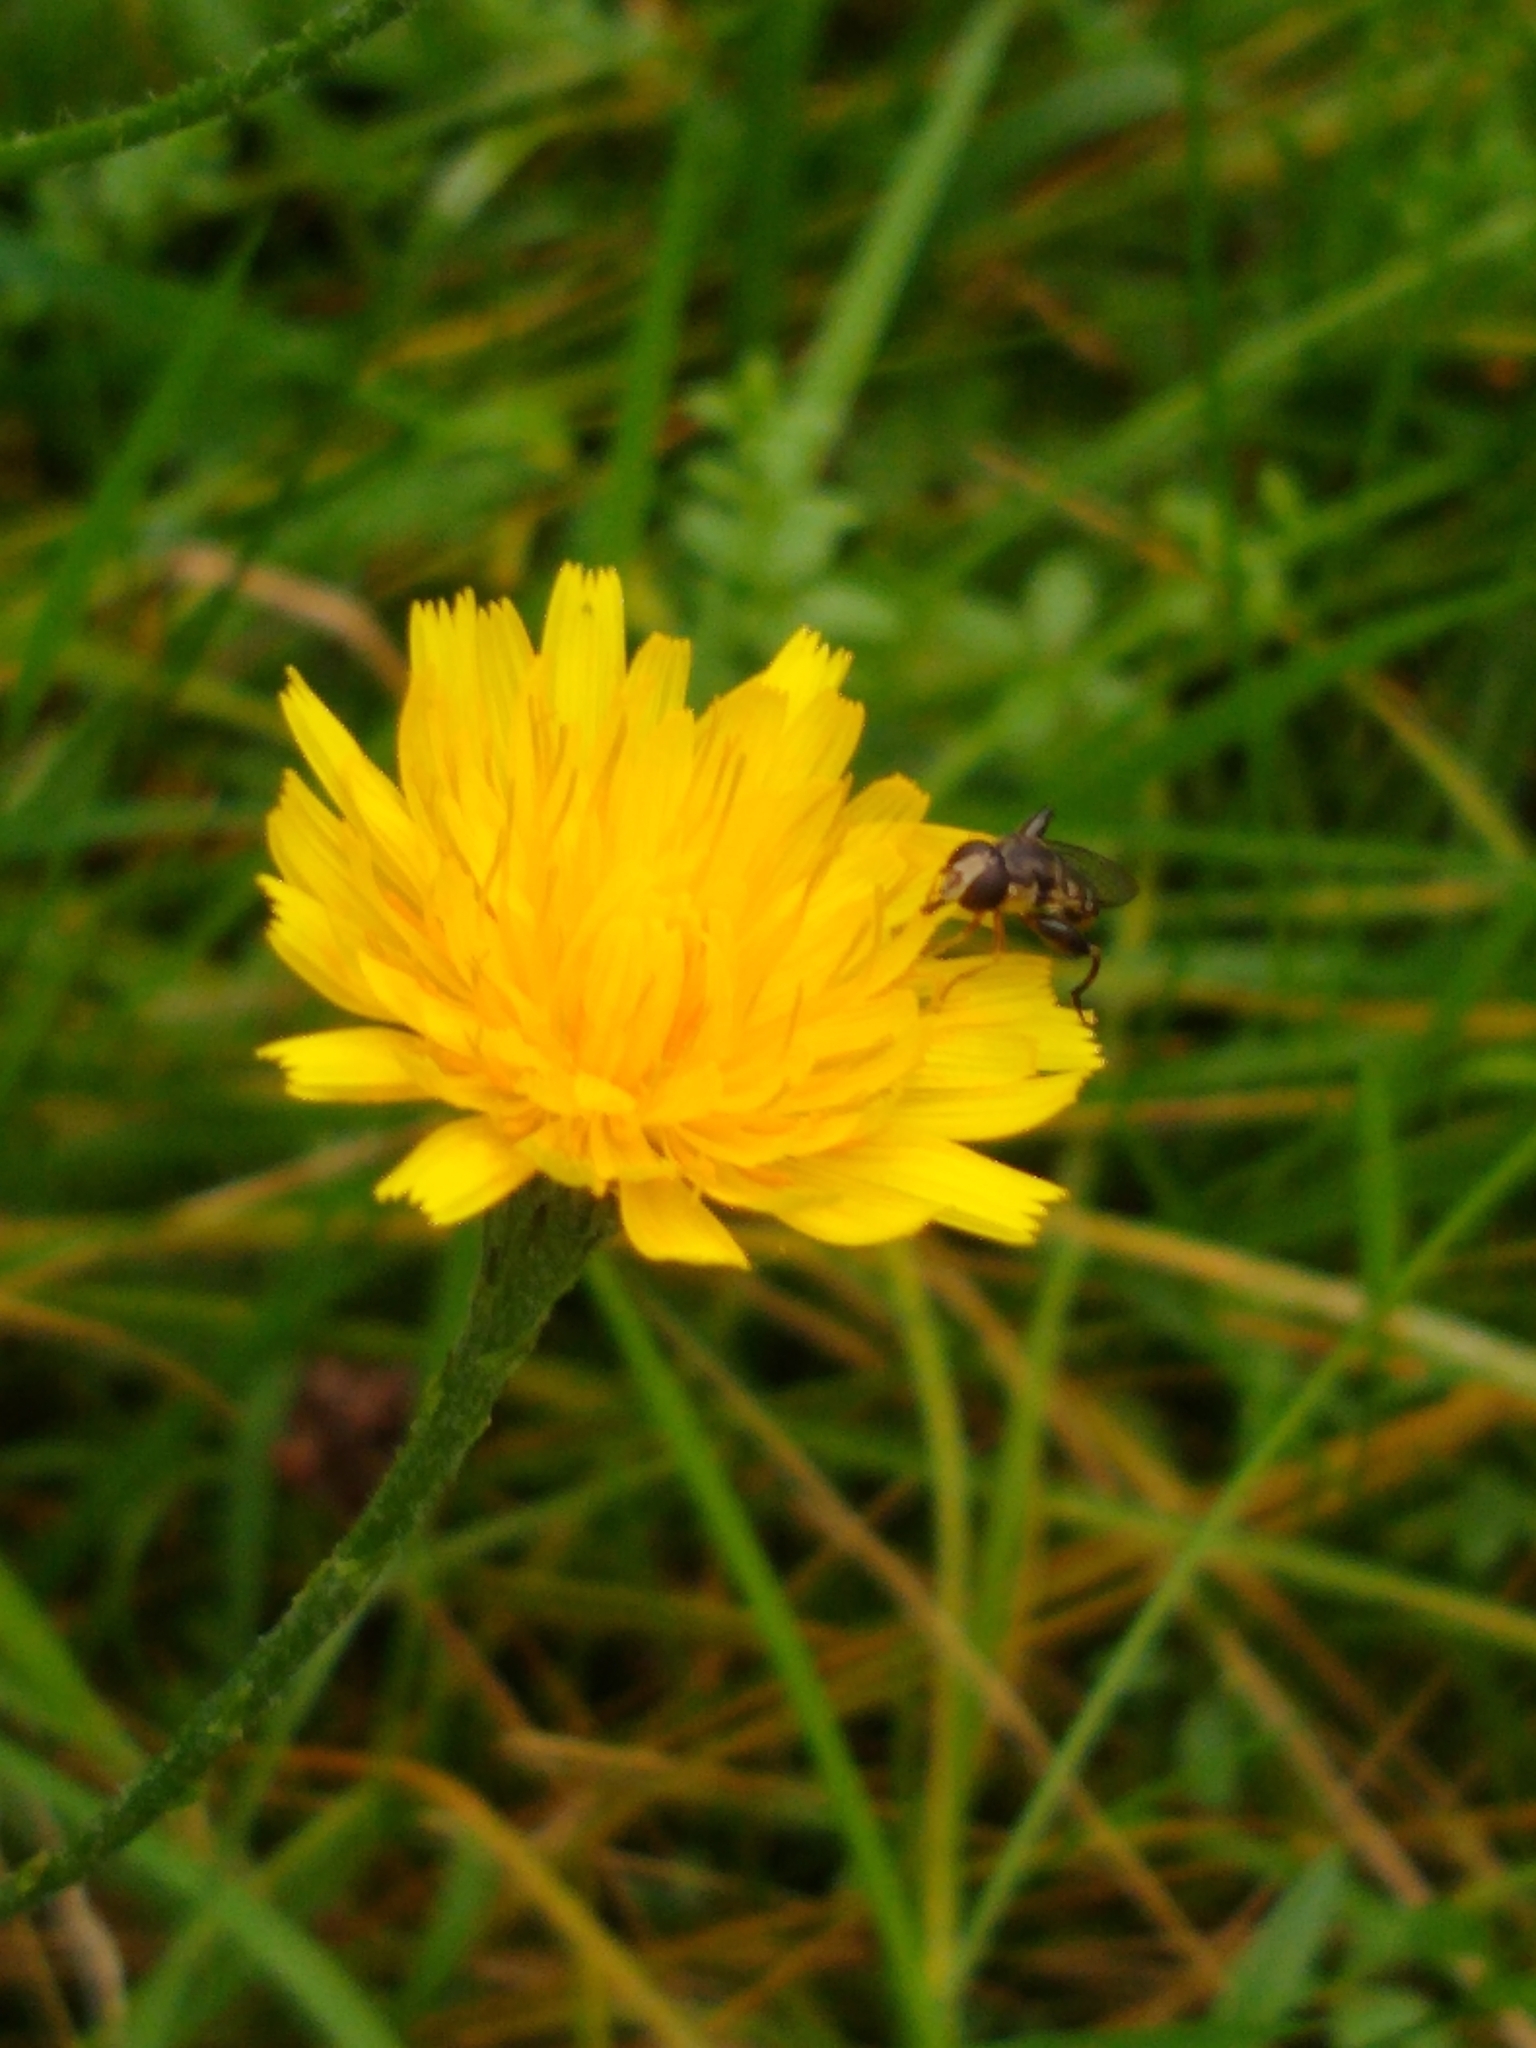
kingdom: Animalia
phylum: Arthropoda
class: Insecta
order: Diptera
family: Syrphidae
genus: Syritta
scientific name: Syritta pipiens
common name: Hover fly
